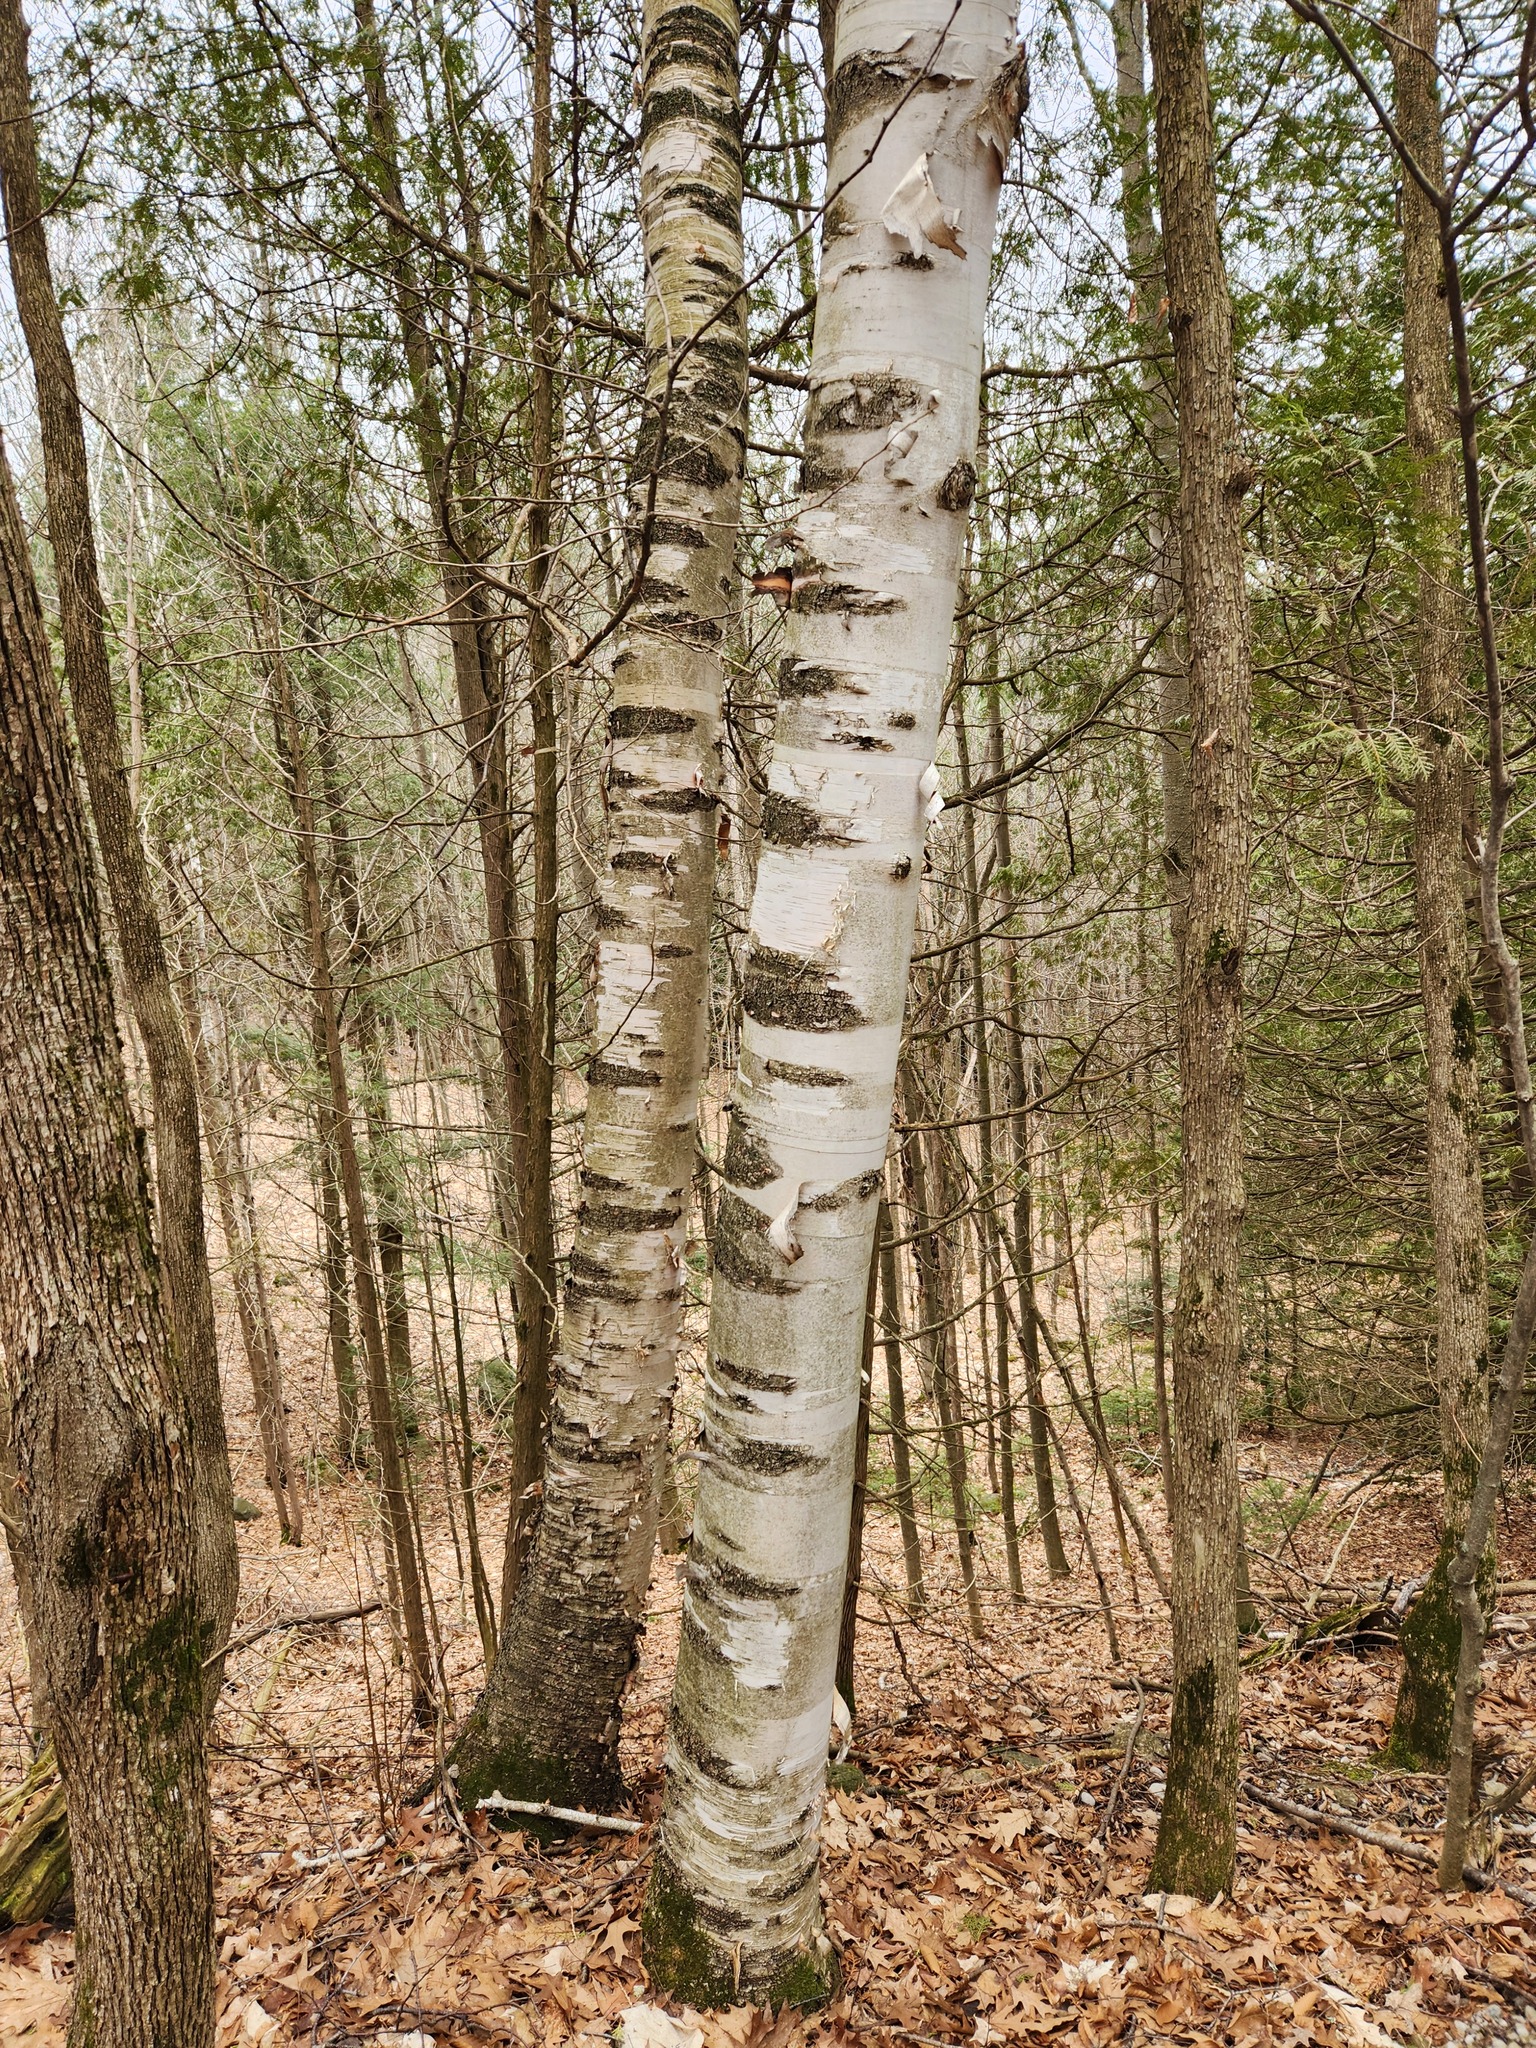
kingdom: Plantae
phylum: Tracheophyta
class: Magnoliopsida
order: Fagales
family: Betulaceae
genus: Betula
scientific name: Betula papyrifera
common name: Paper birch
